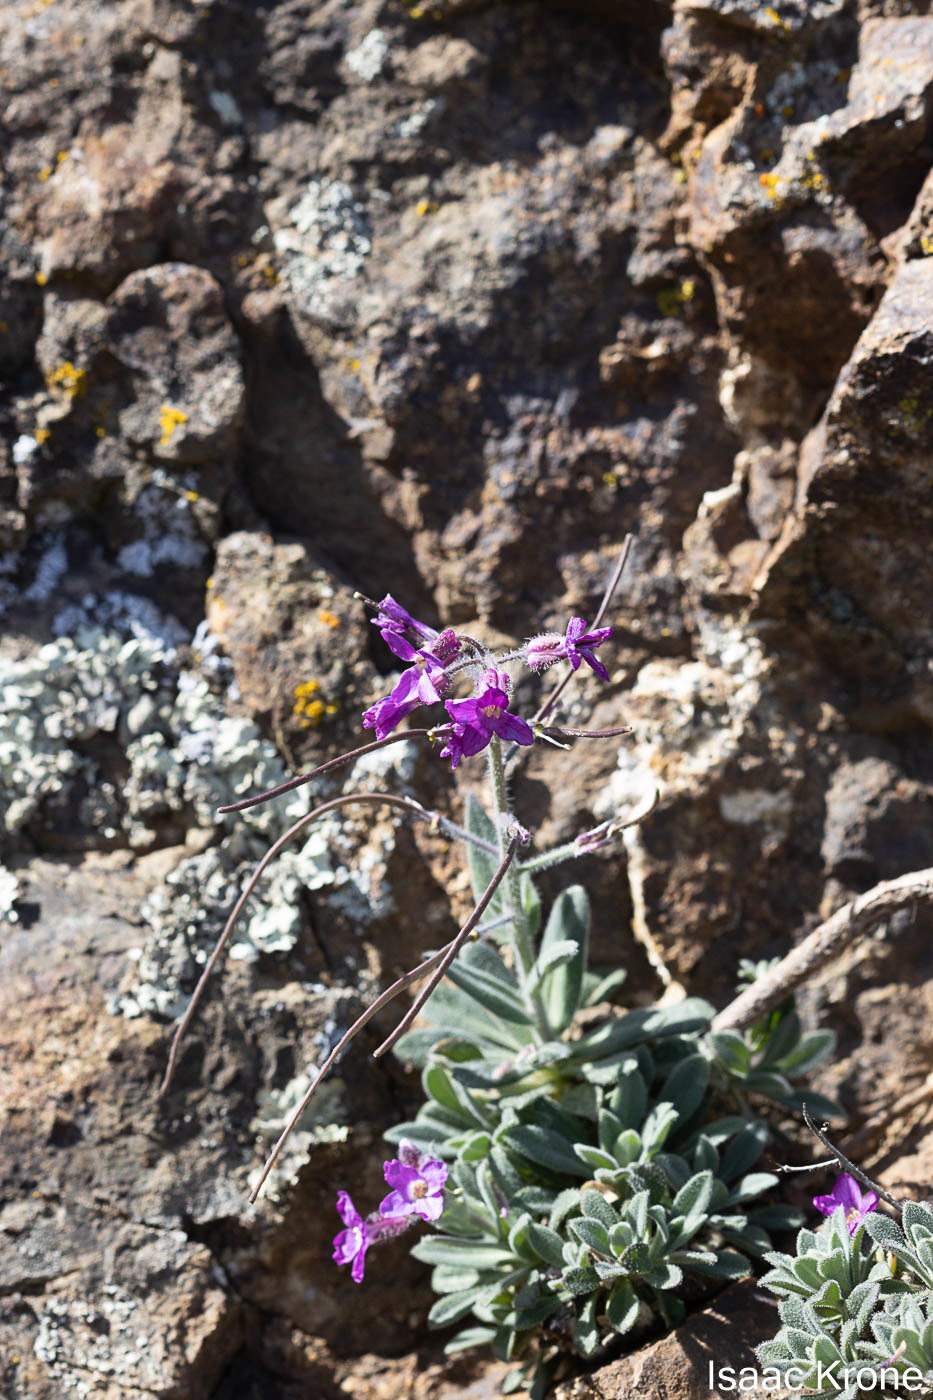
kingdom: Plantae
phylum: Tracheophyta
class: Magnoliopsida
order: Brassicales
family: Brassicaceae
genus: Boechera
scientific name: Boechera breweri
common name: Brewer's rockcress
